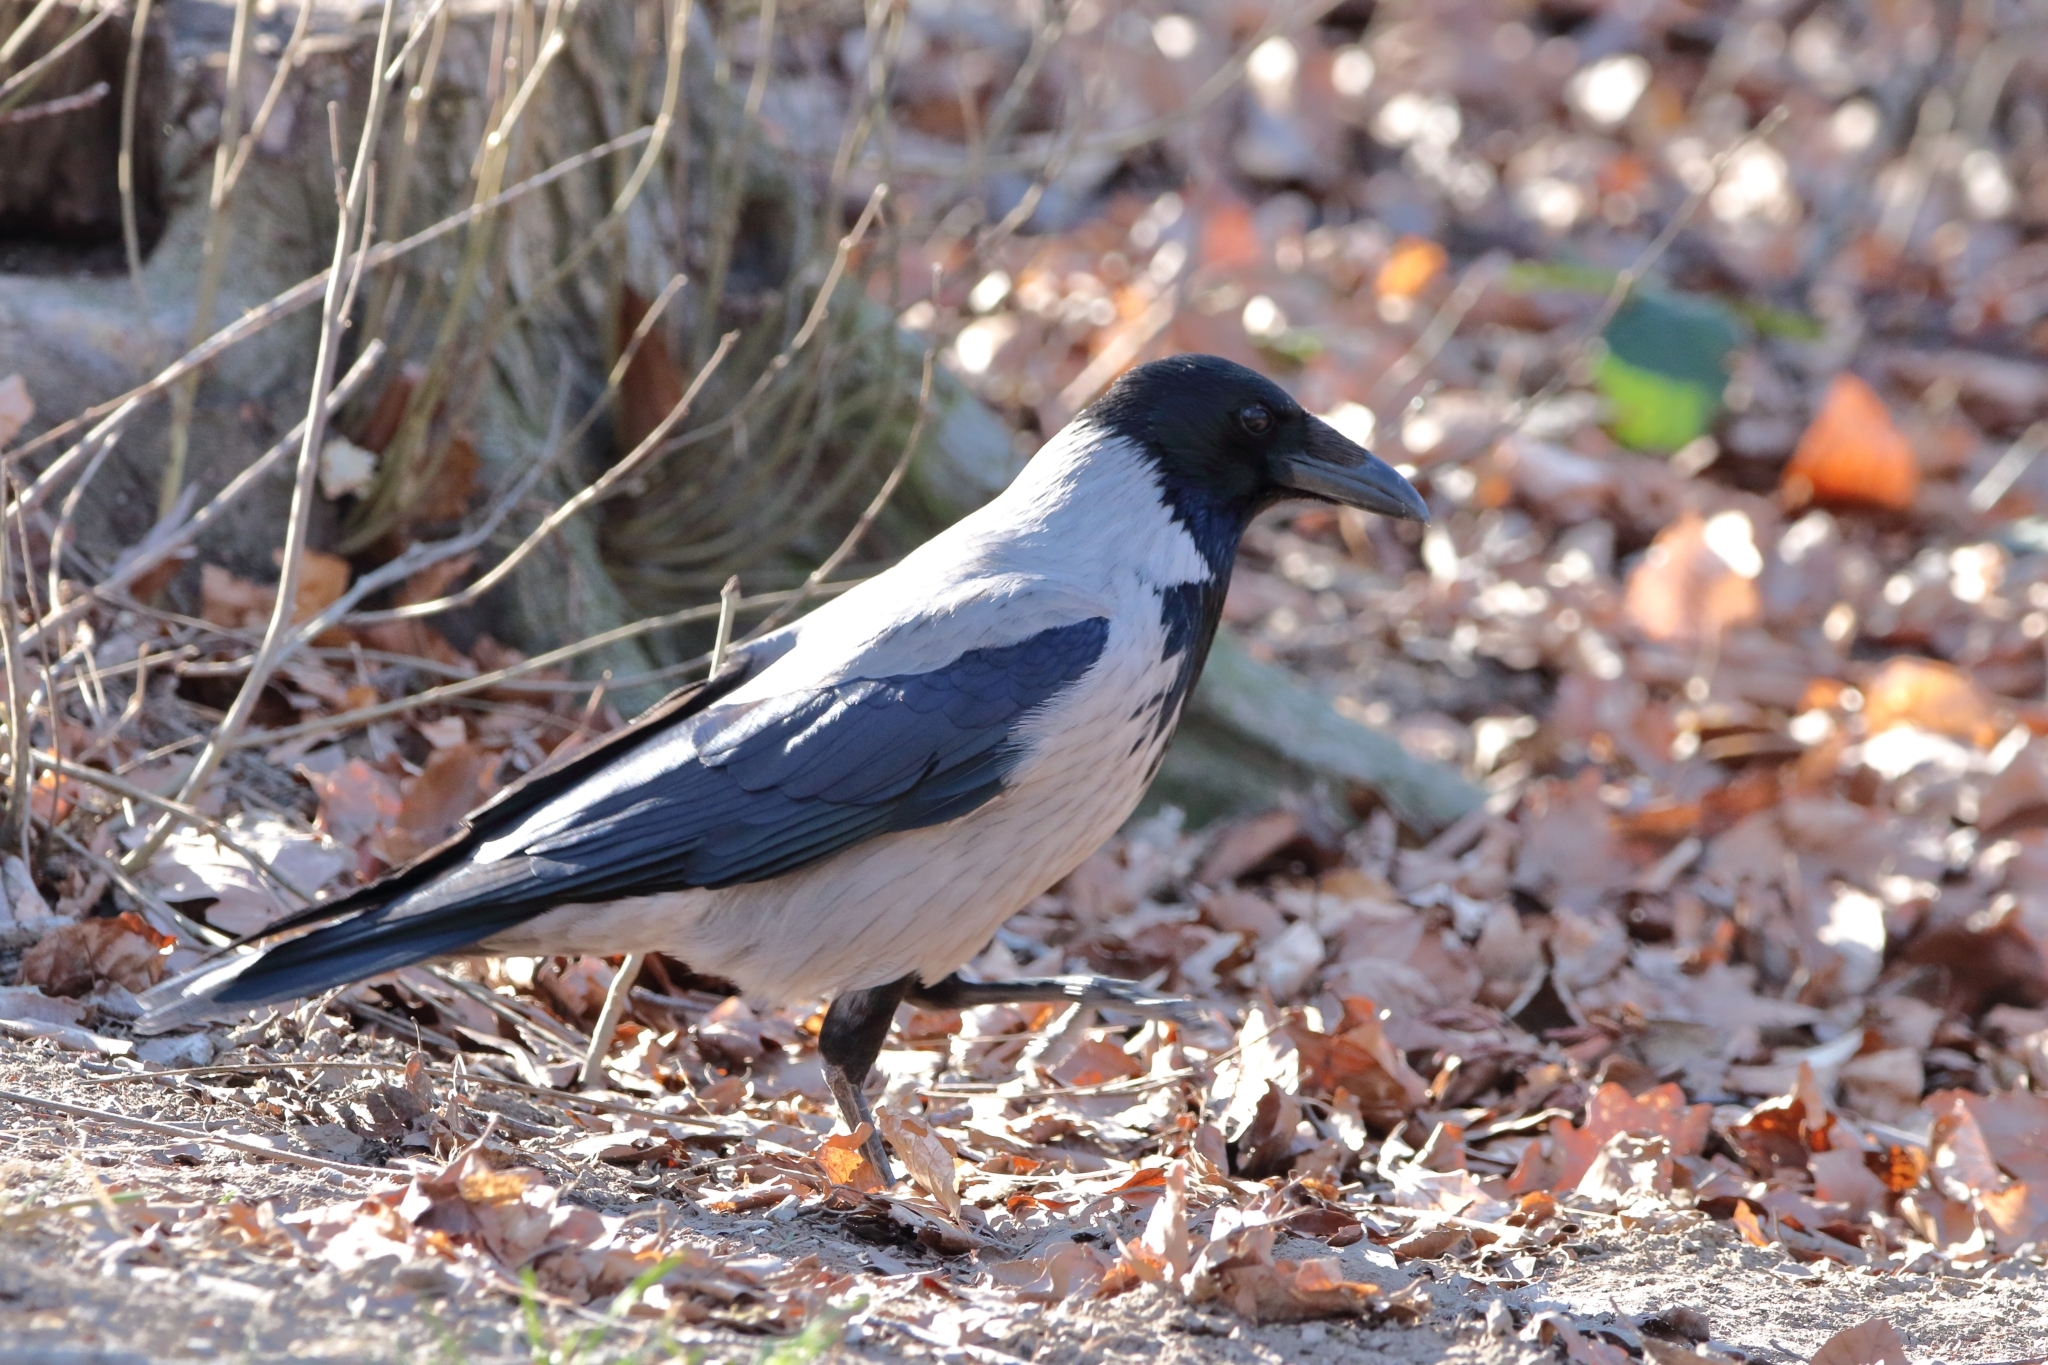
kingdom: Animalia
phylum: Chordata
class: Aves
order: Passeriformes
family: Corvidae
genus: Corvus
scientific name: Corvus cornix
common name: Hooded crow
